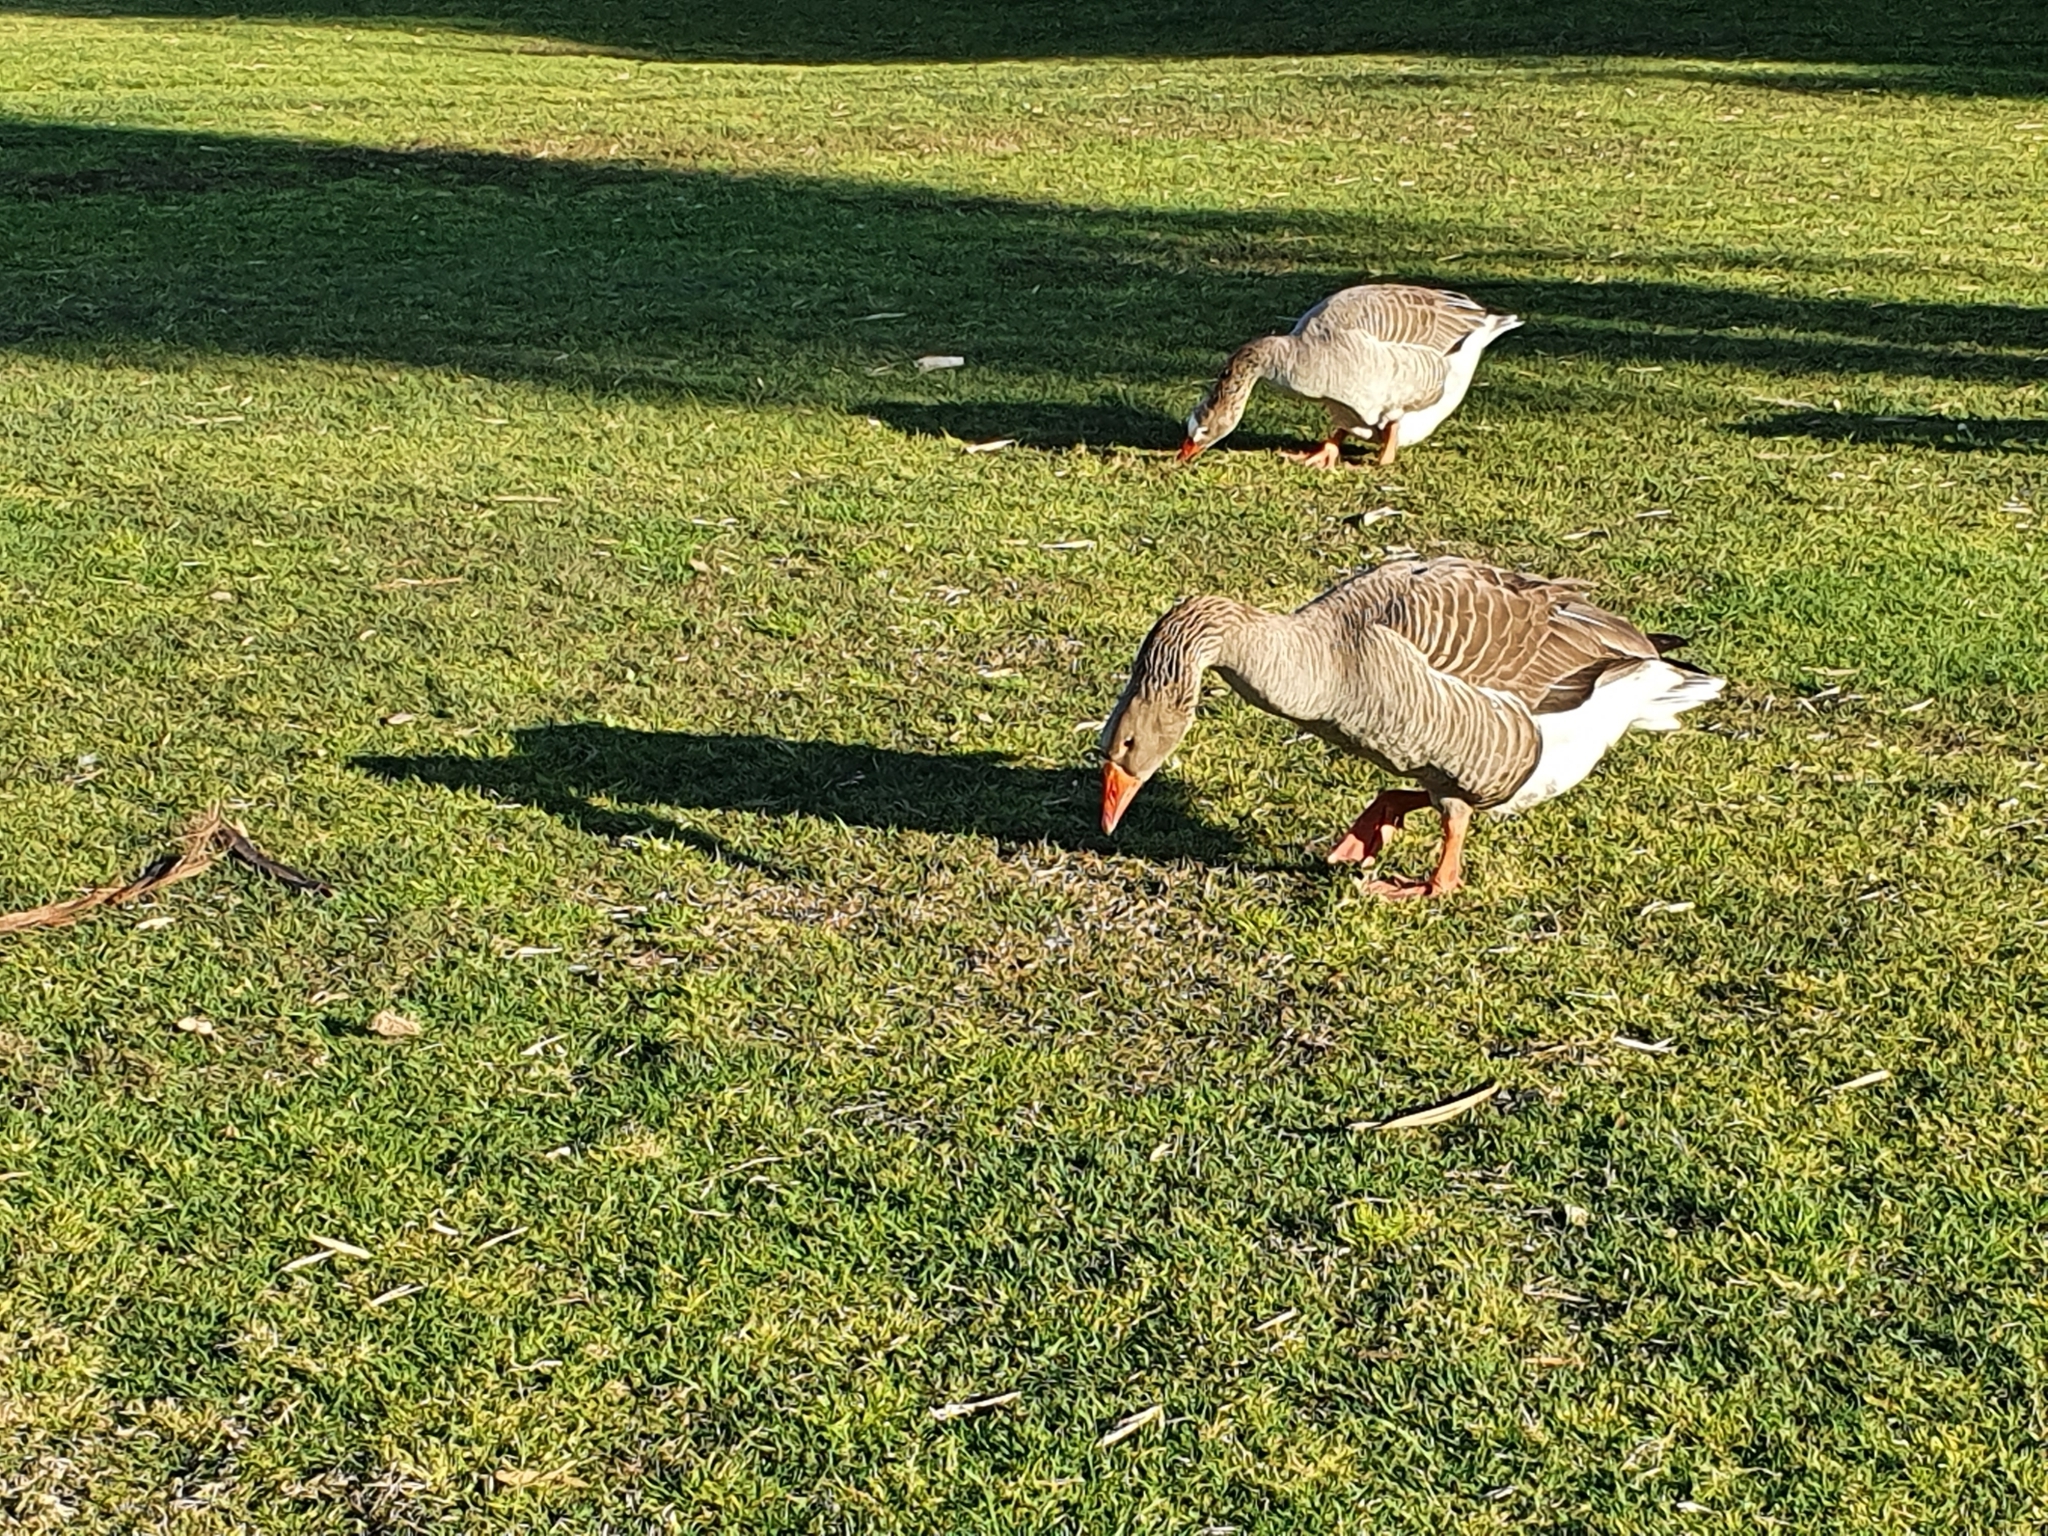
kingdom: Animalia
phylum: Chordata
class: Aves
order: Anseriformes
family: Anatidae
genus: Anser
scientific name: Anser anser
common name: Greylag goose
